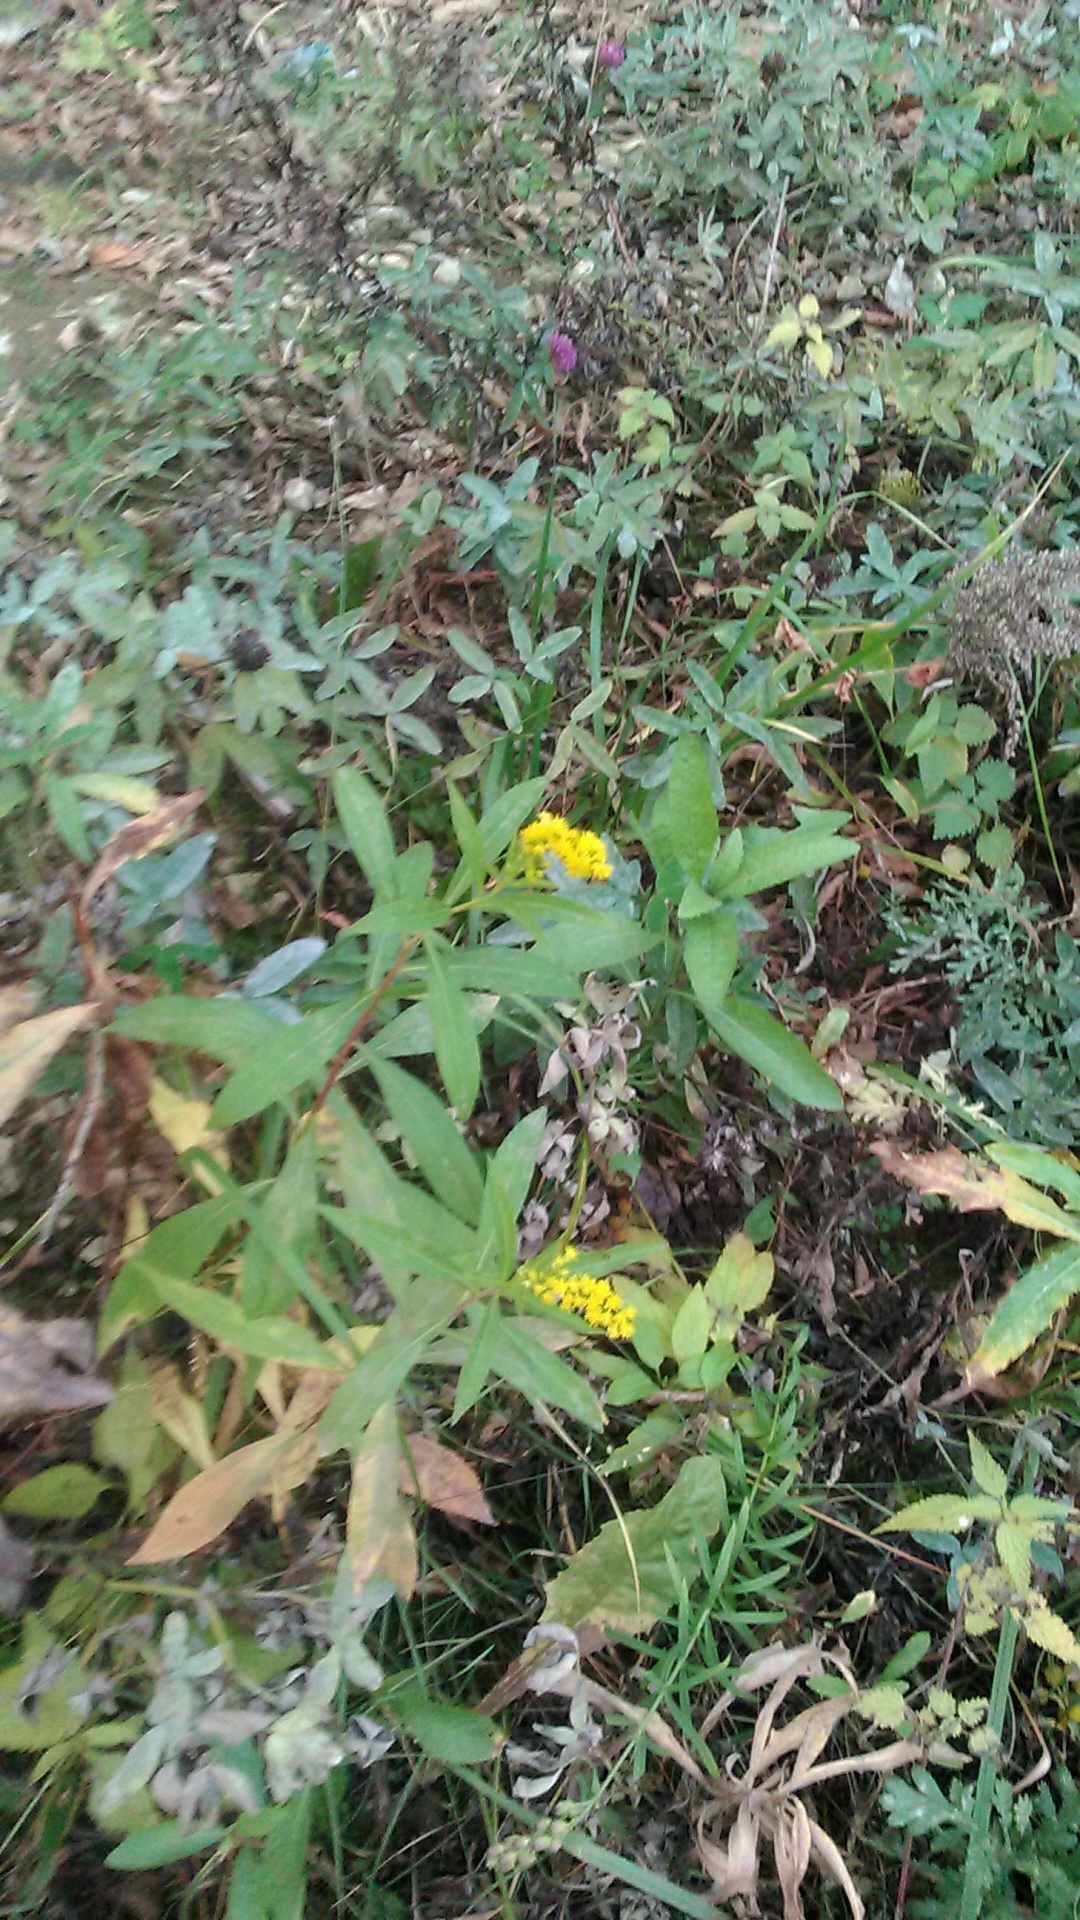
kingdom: Plantae
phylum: Tracheophyta
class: Magnoliopsida
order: Asterales
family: Asteraceae
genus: Solidago
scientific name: Solidago gigantea
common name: Giant goldenrod
